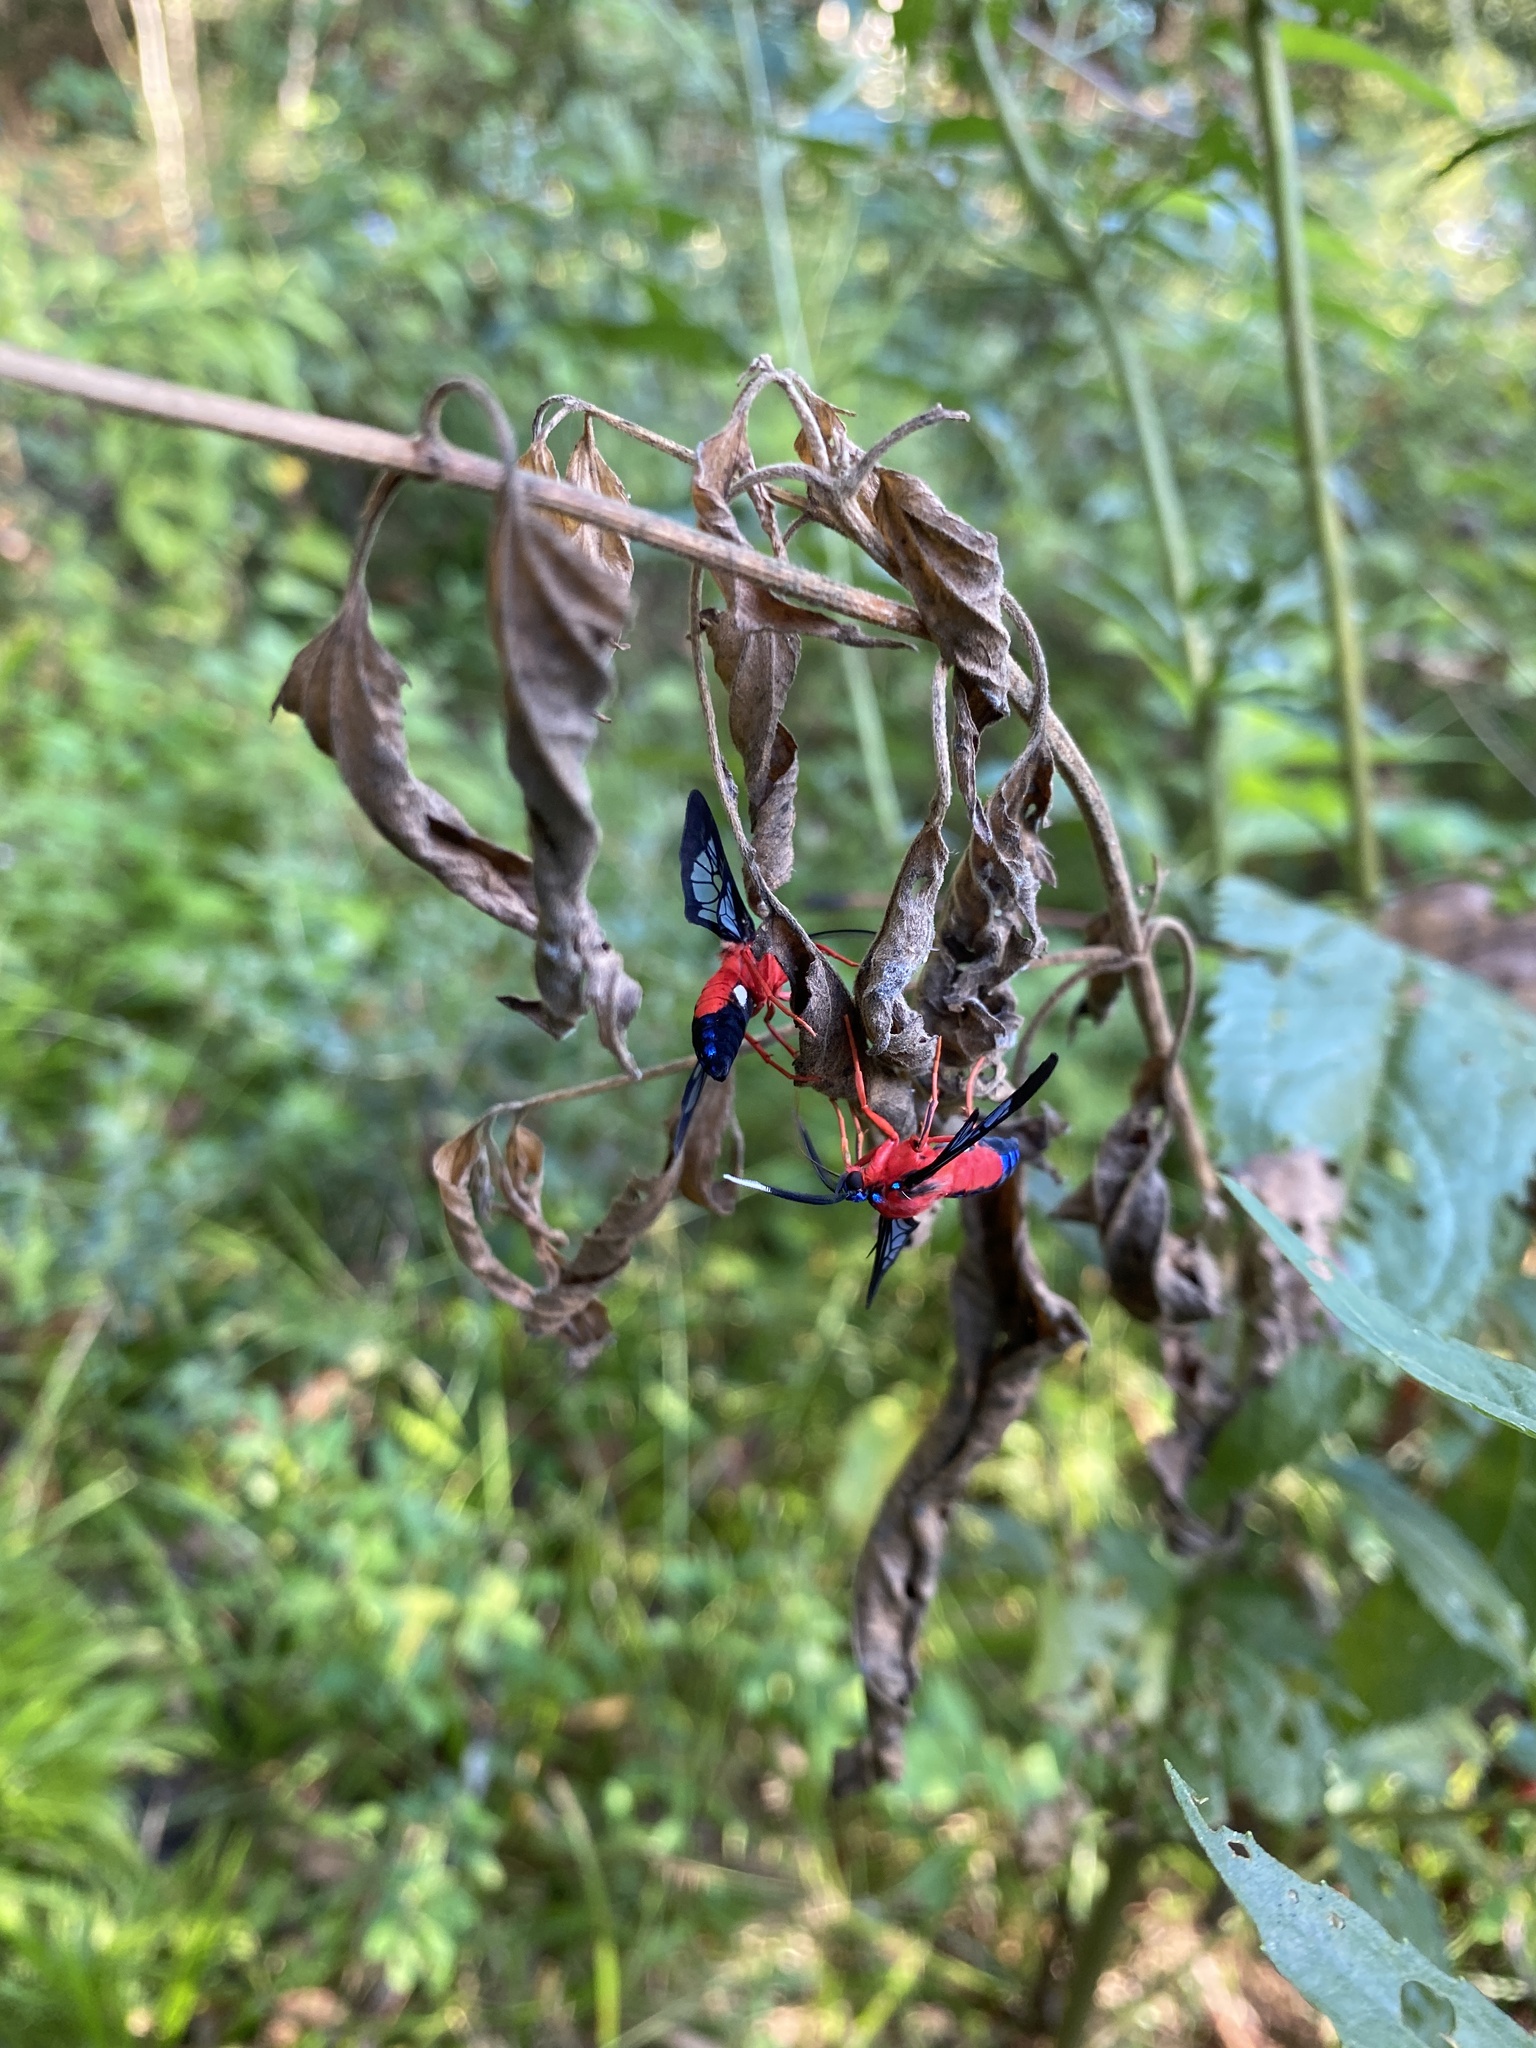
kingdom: Animalia
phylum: Arthropoda
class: Insecta
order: Lepidoptera
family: Erebidae
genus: Cosmosoma
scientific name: Cosmosoma myrodora
